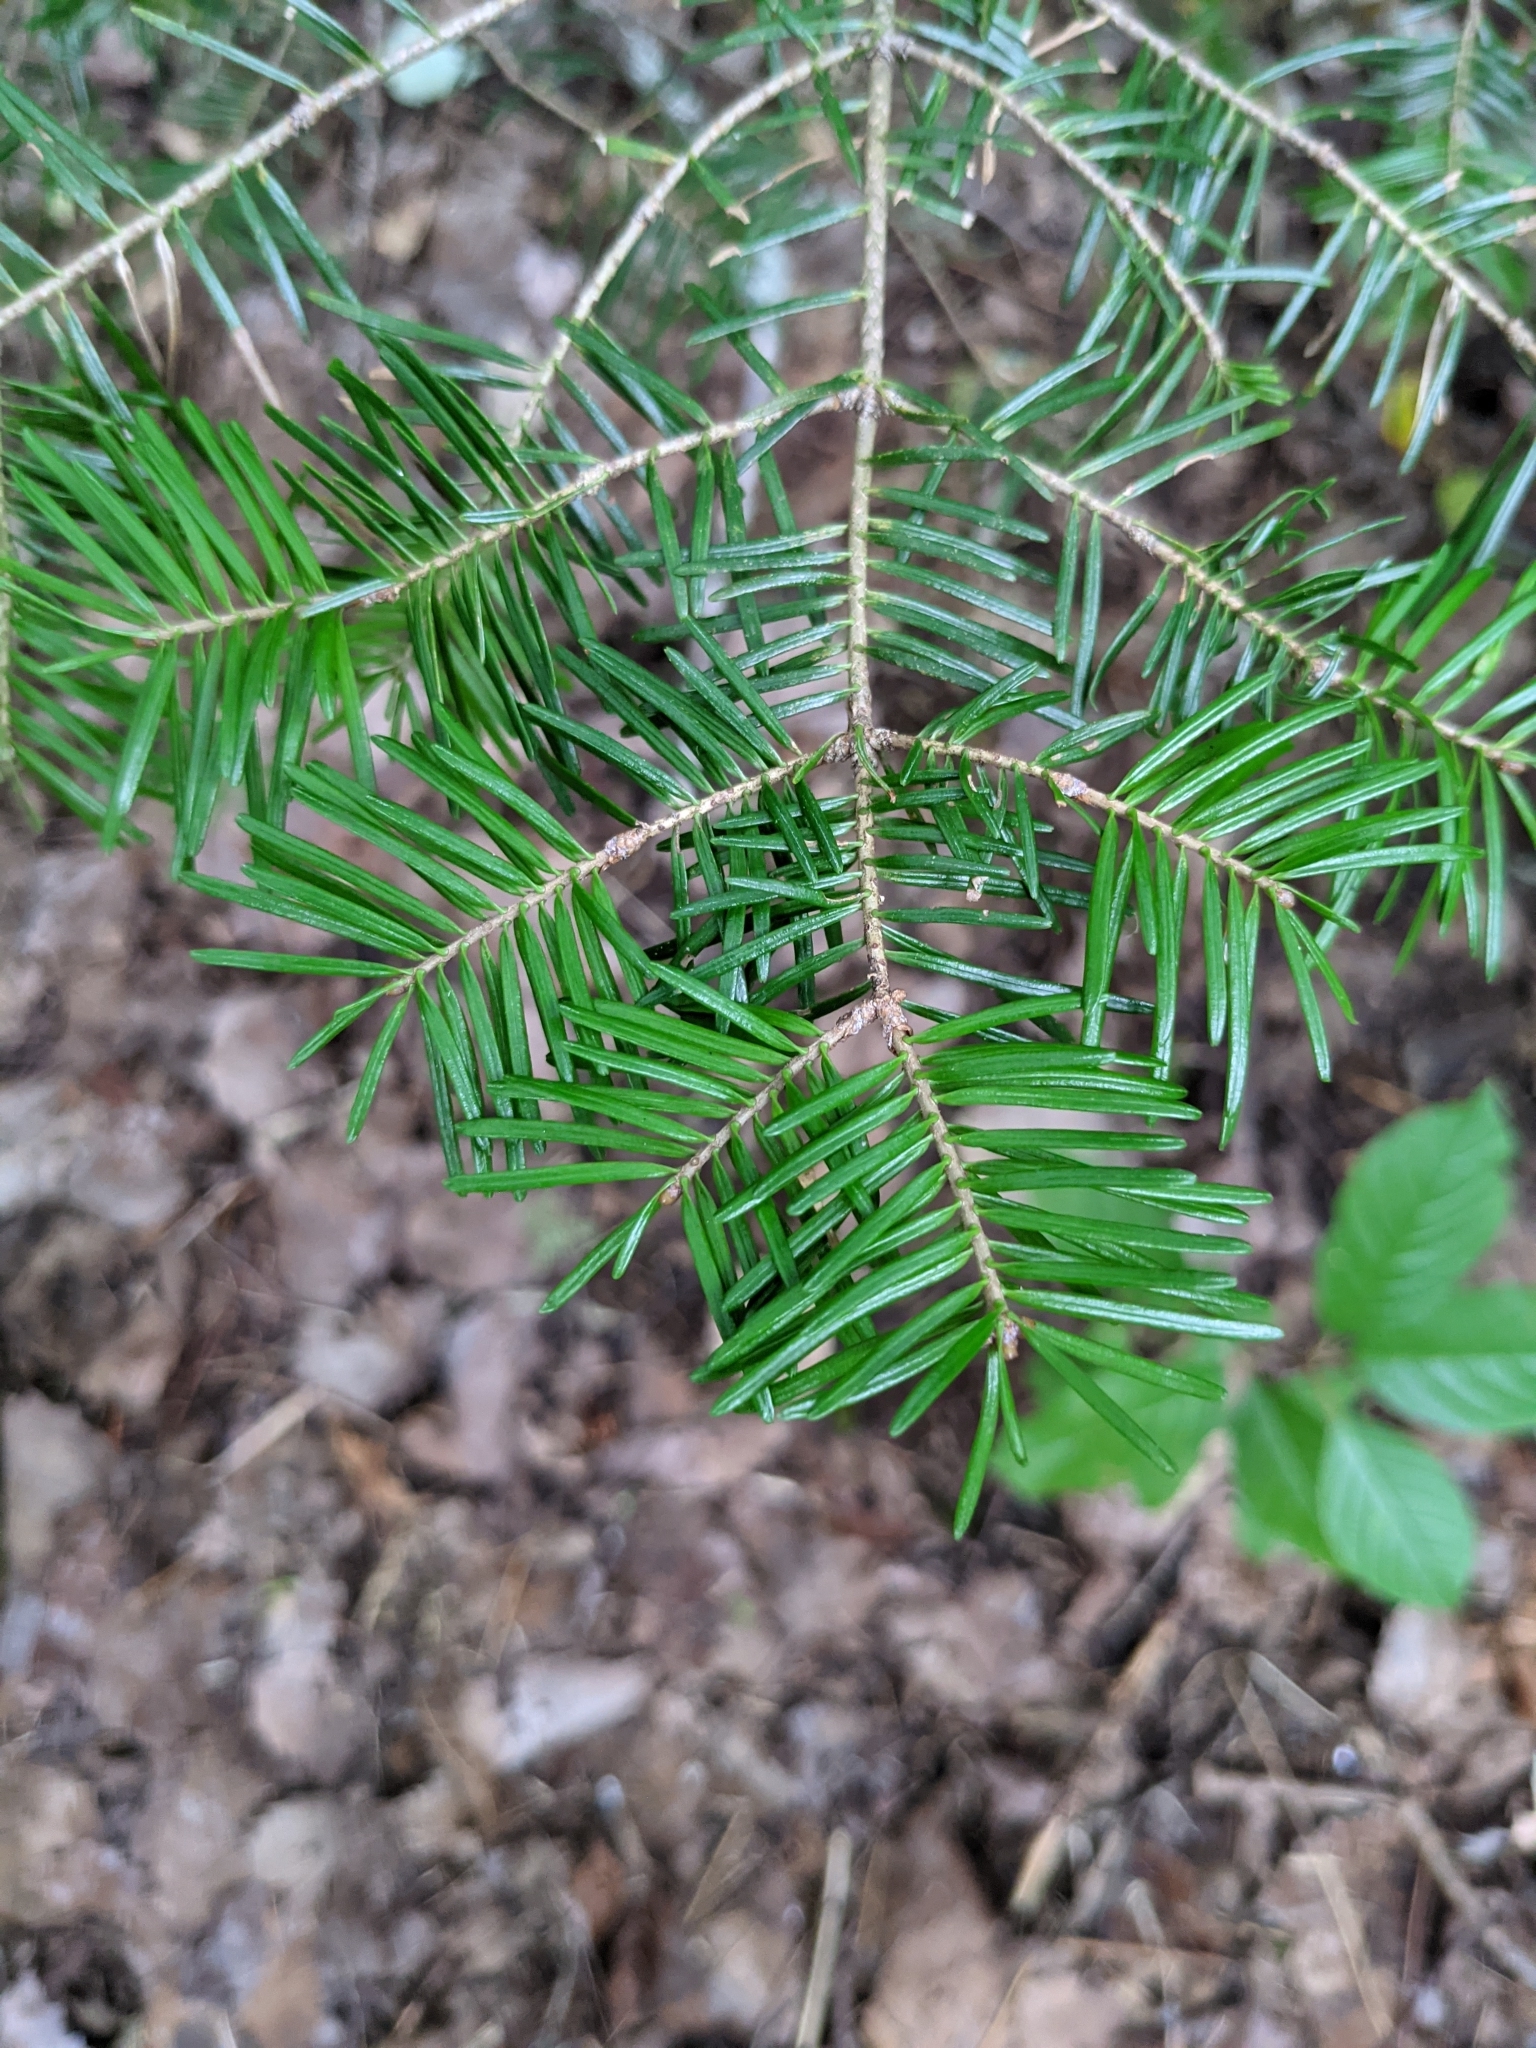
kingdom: Plantae
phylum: Tracheophyta
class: Pinopsida
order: Pinales
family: Pinaceae
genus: Abies
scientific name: Abies balsamea
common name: Balsam fir
